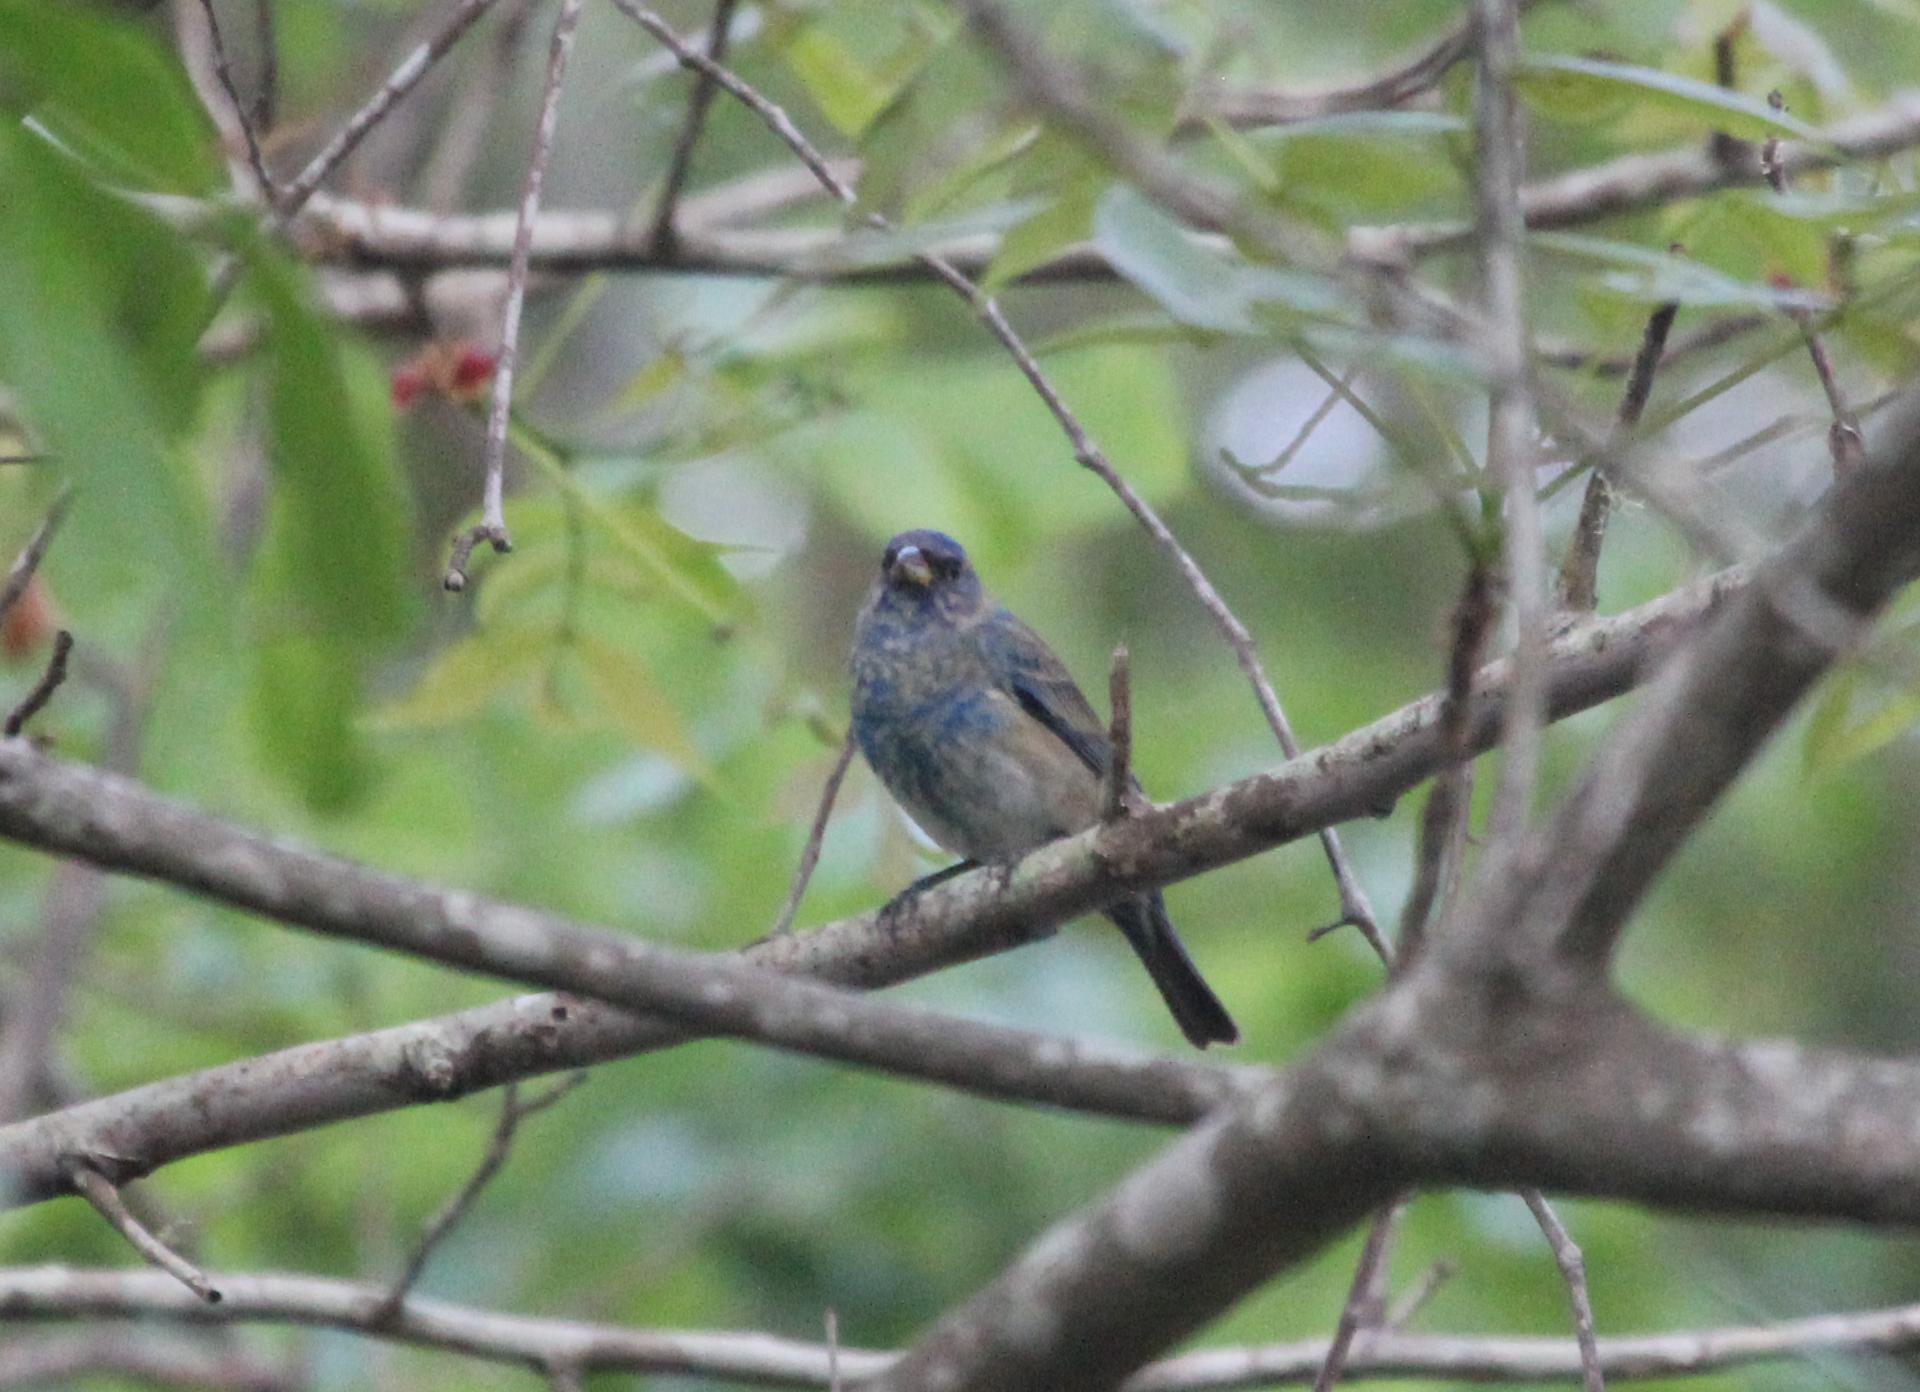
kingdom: Animalia
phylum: Chordata
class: Aves
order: Passeriformes
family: Cardinalidae
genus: Passerina
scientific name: Passerina cyanea
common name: Indigo bunting
